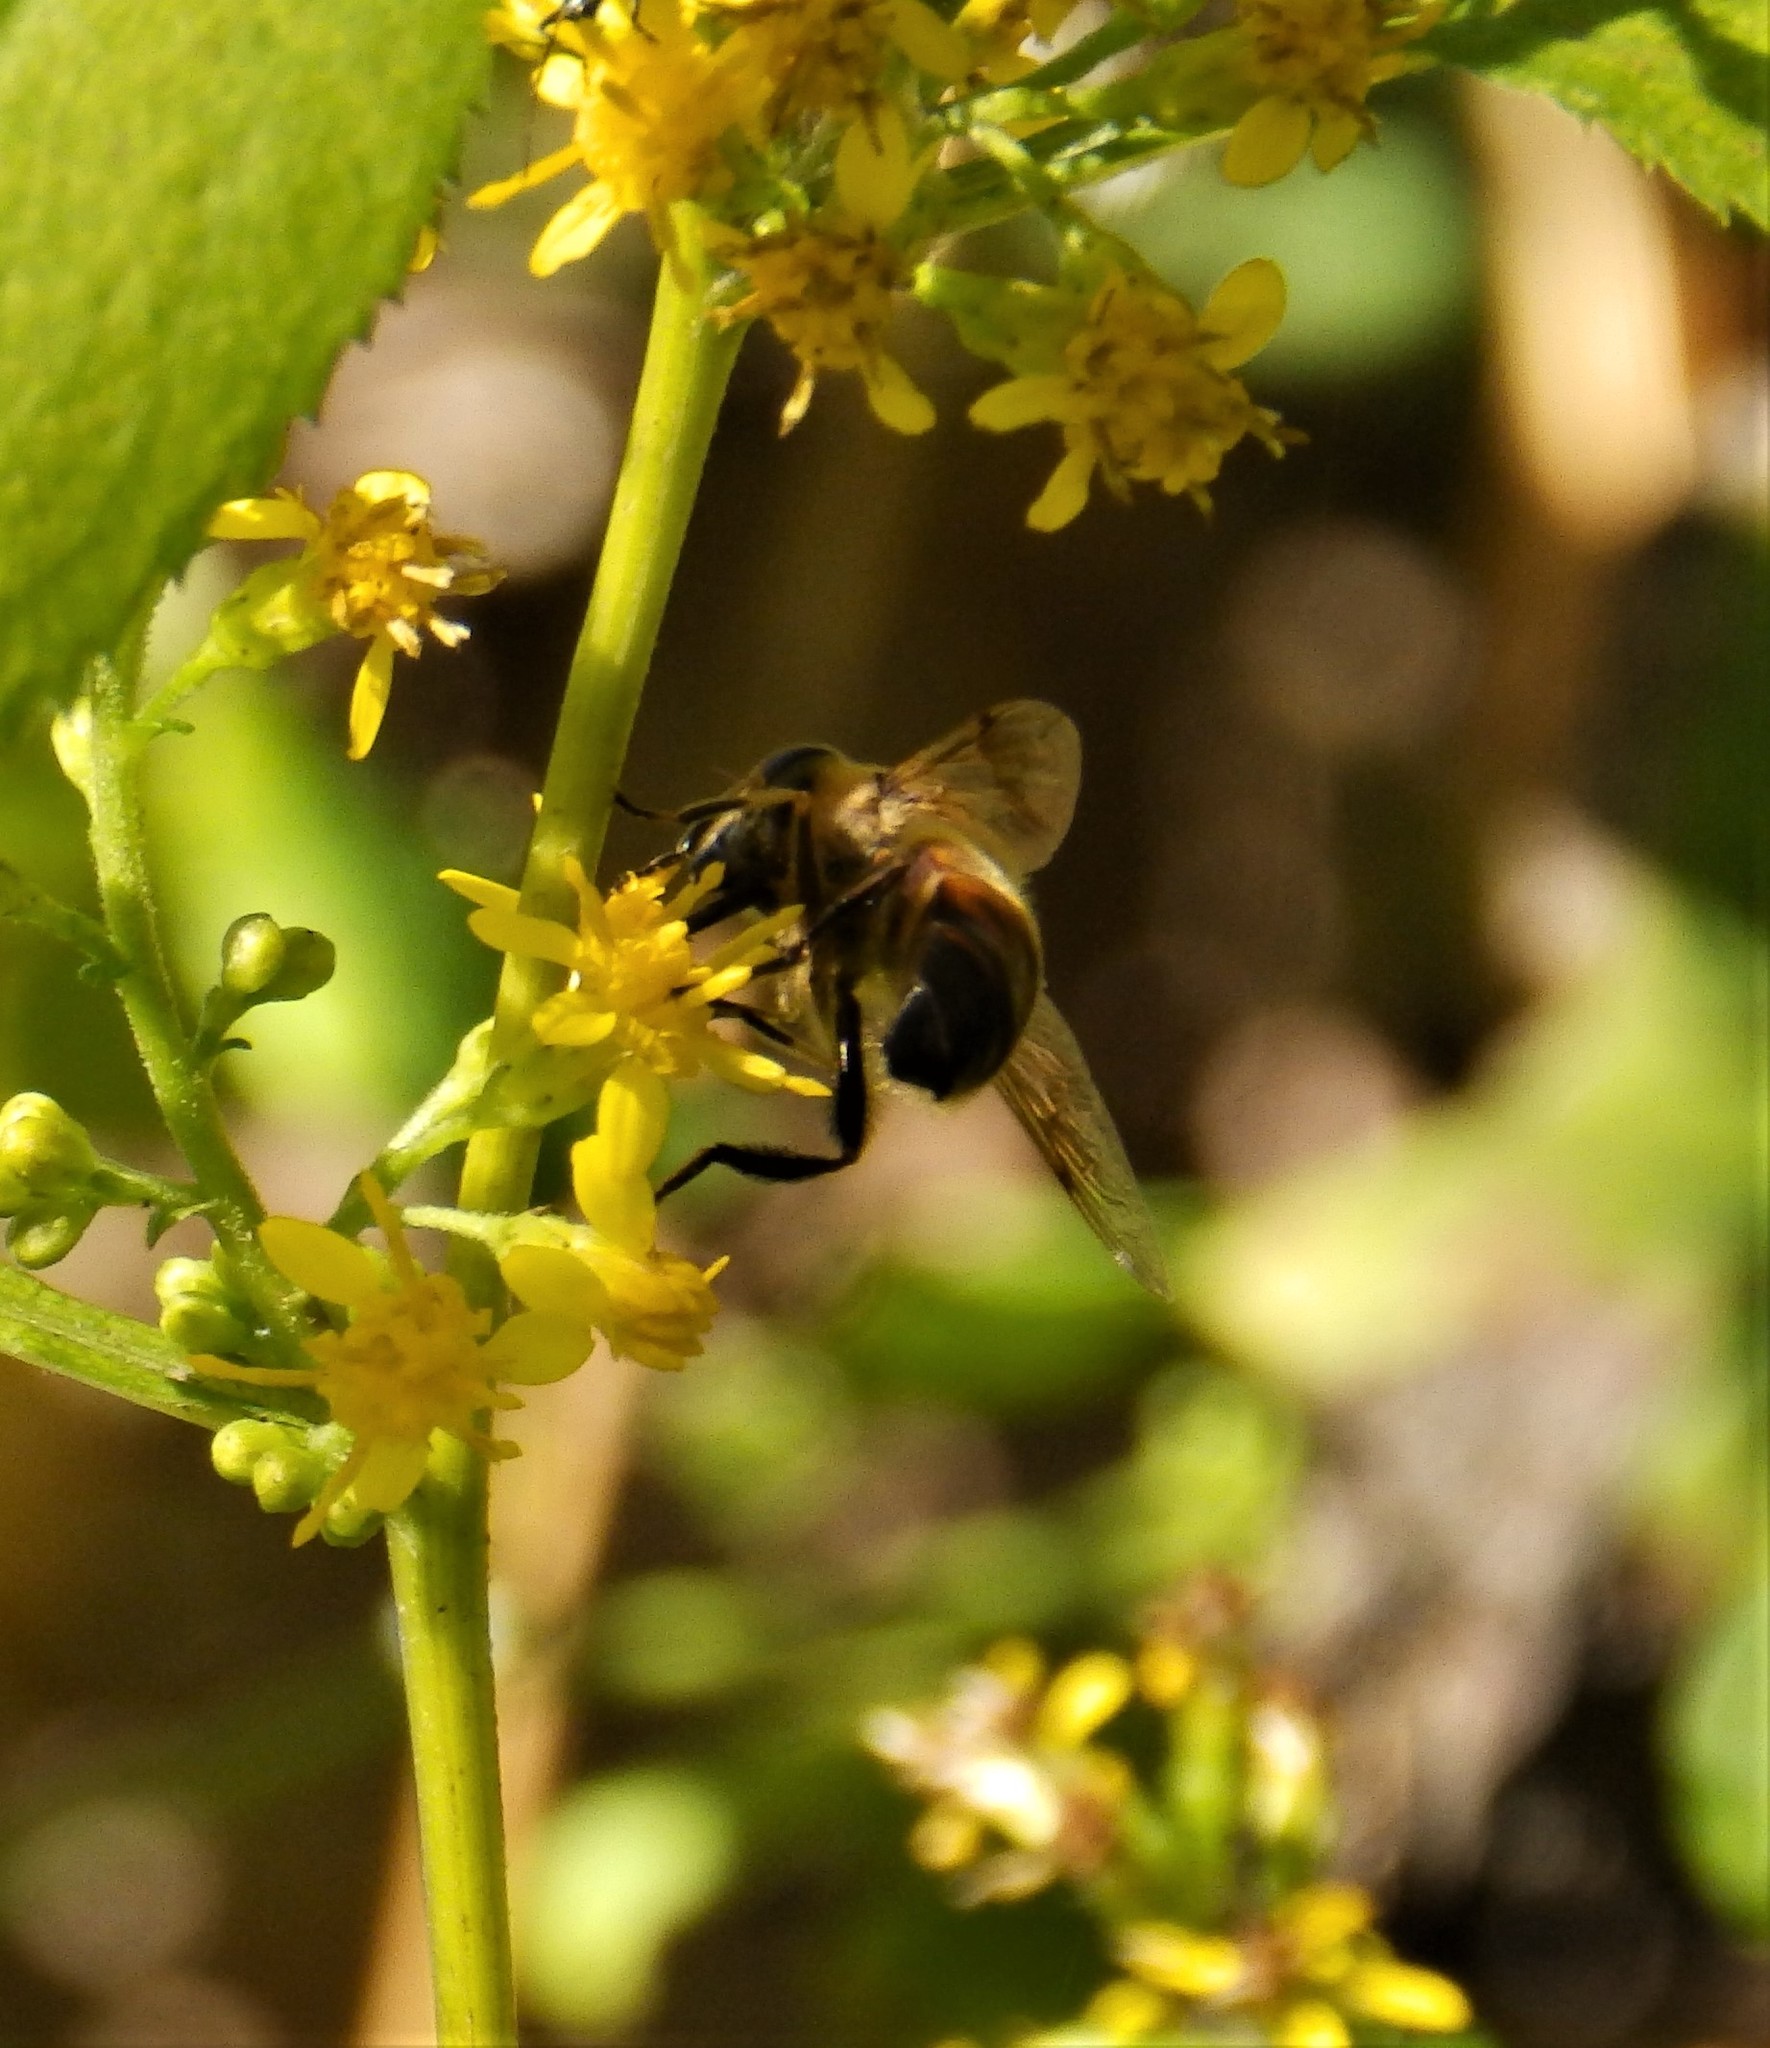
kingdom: Animalia
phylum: Arthropoda
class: Insecta
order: Diptera
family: Syrphidae
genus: Eristalis
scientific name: Eristalis tenax
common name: Drone fly
